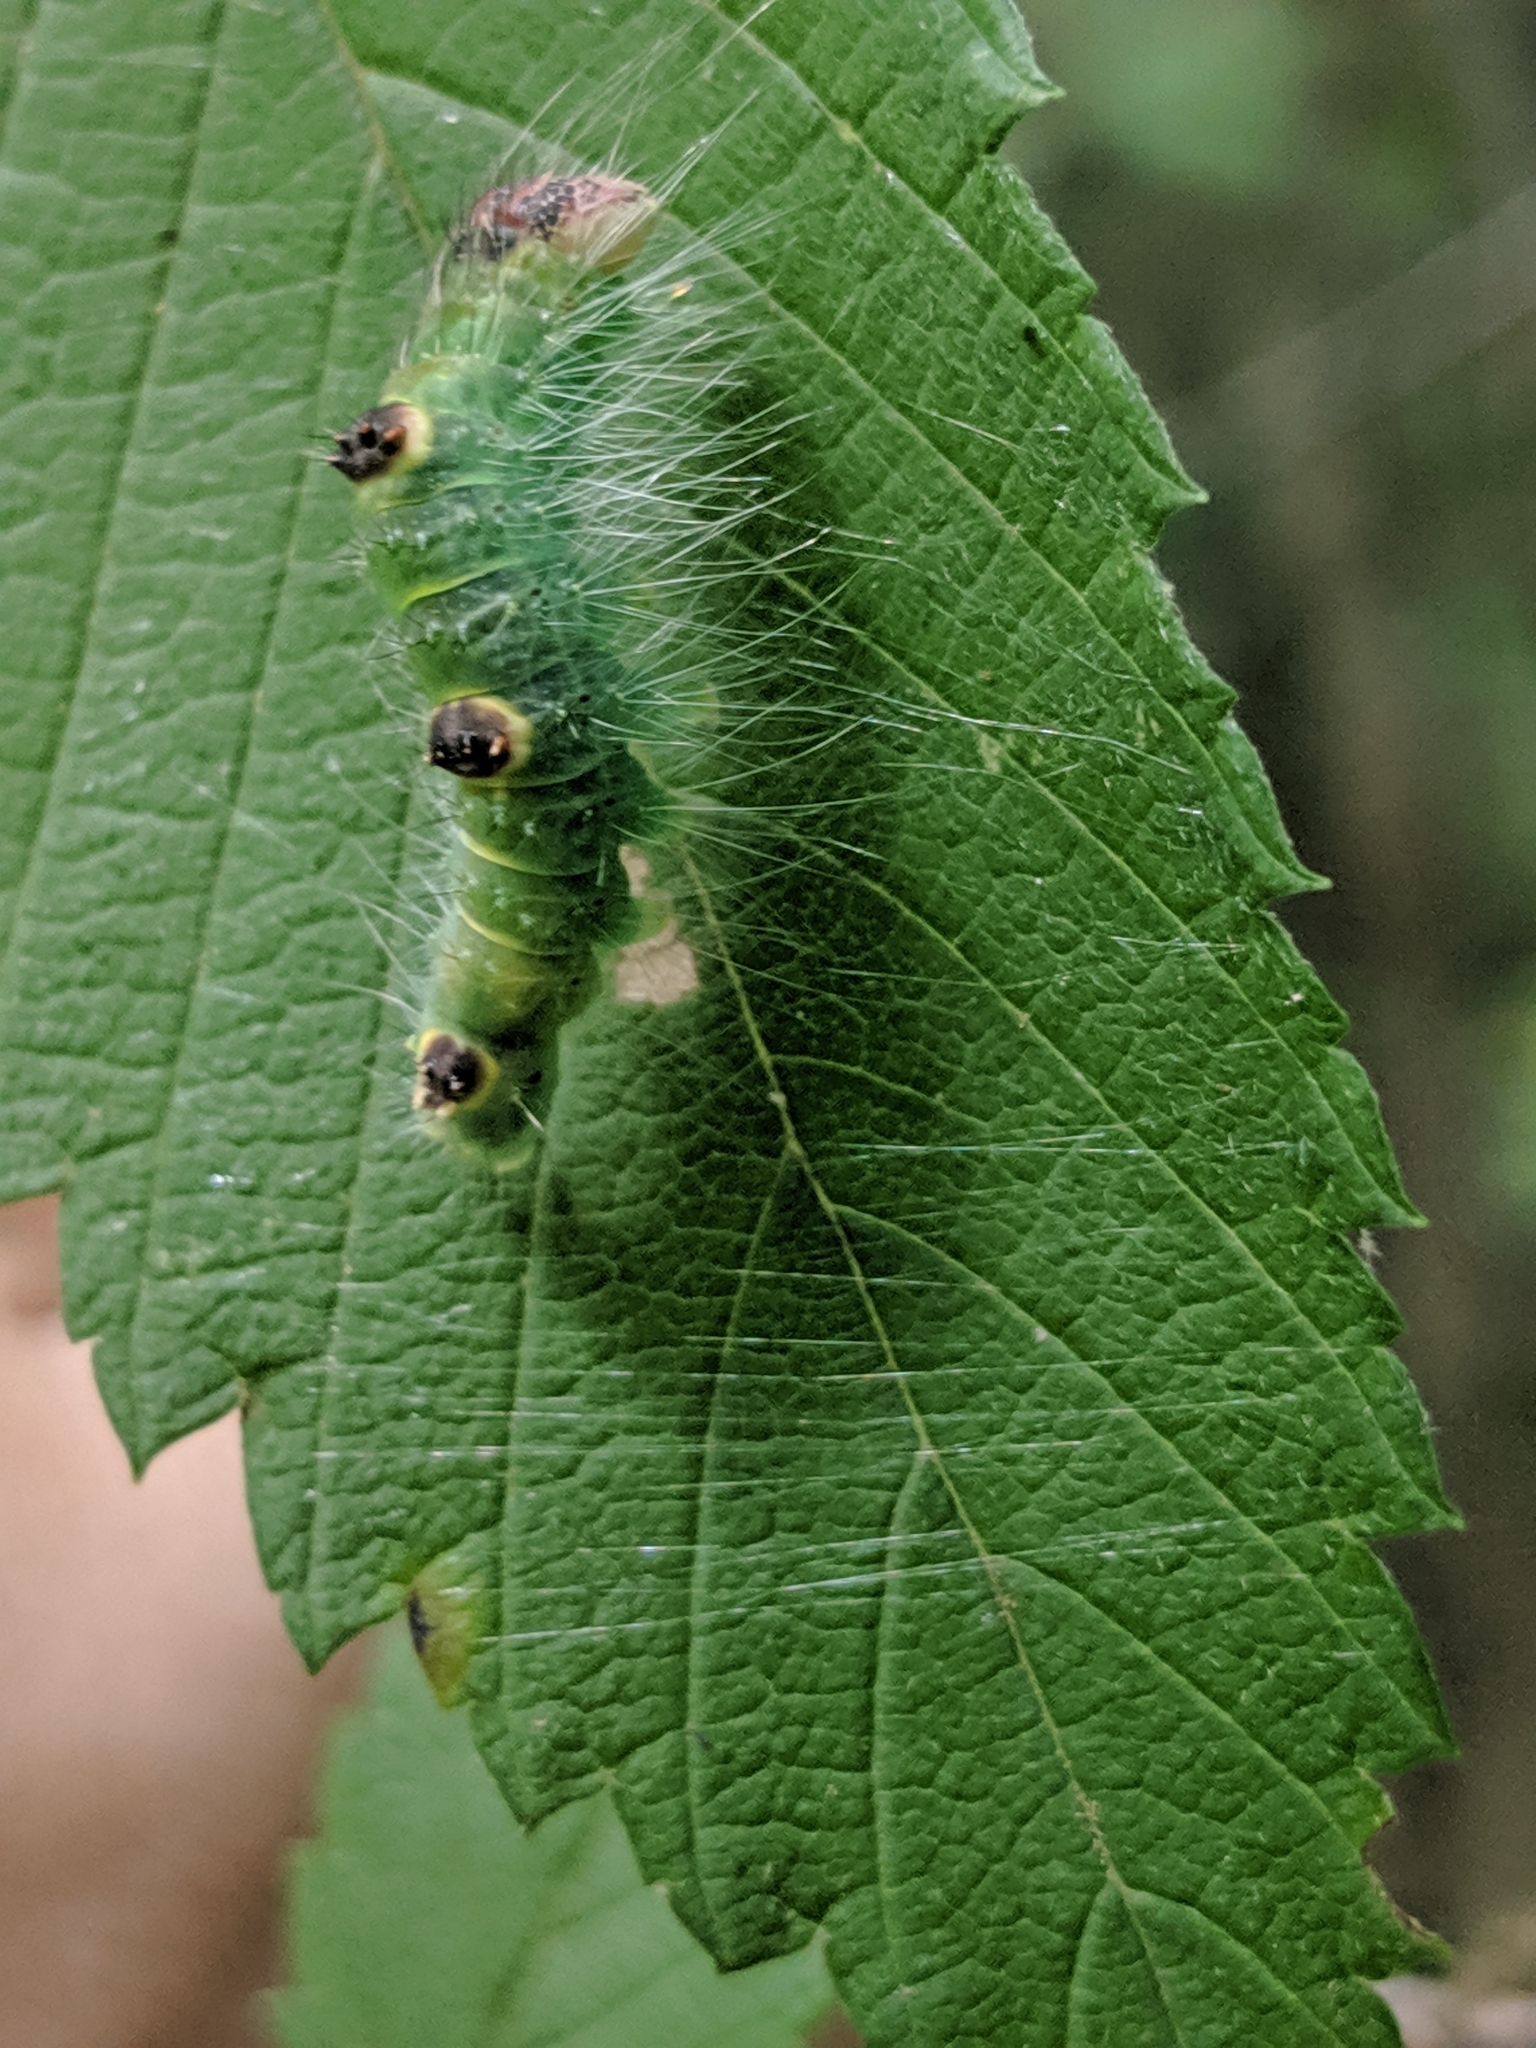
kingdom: Animalia
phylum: Arthropoda
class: Insecta
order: Lepidoptera
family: Noctuidae
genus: Acronicta
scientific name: Acronicta morula
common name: Ochre dagger
